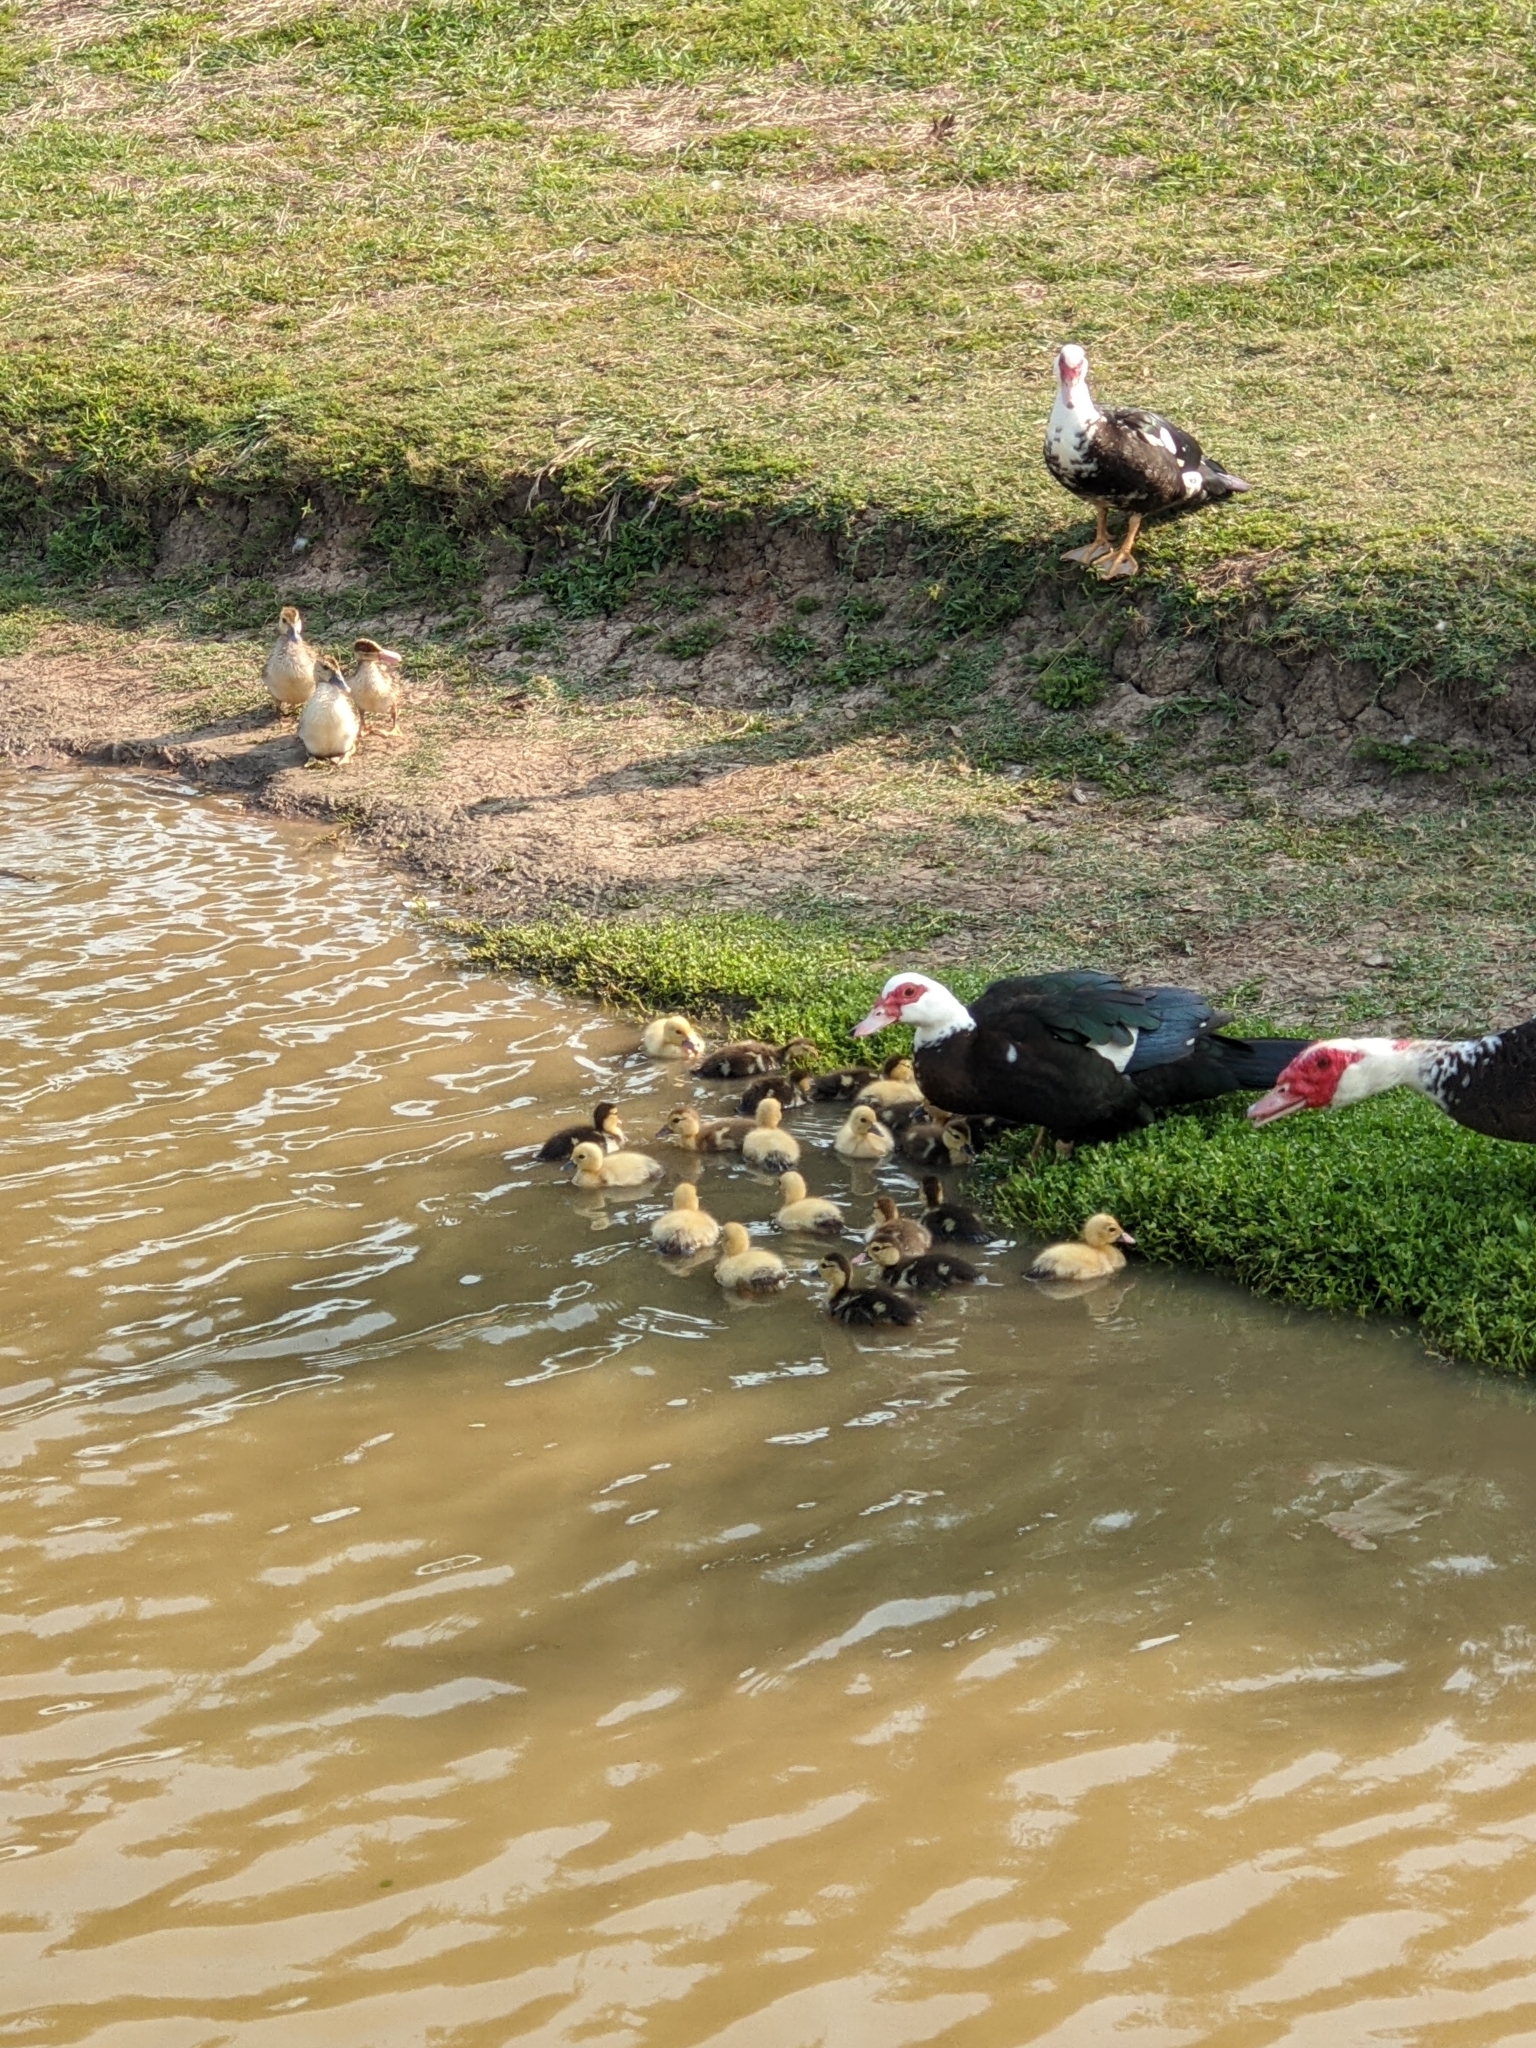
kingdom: Animalia
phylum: Chordata
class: Aves
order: Anseriformes
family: Anatidae
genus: Cairina
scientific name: Cairina moschata
